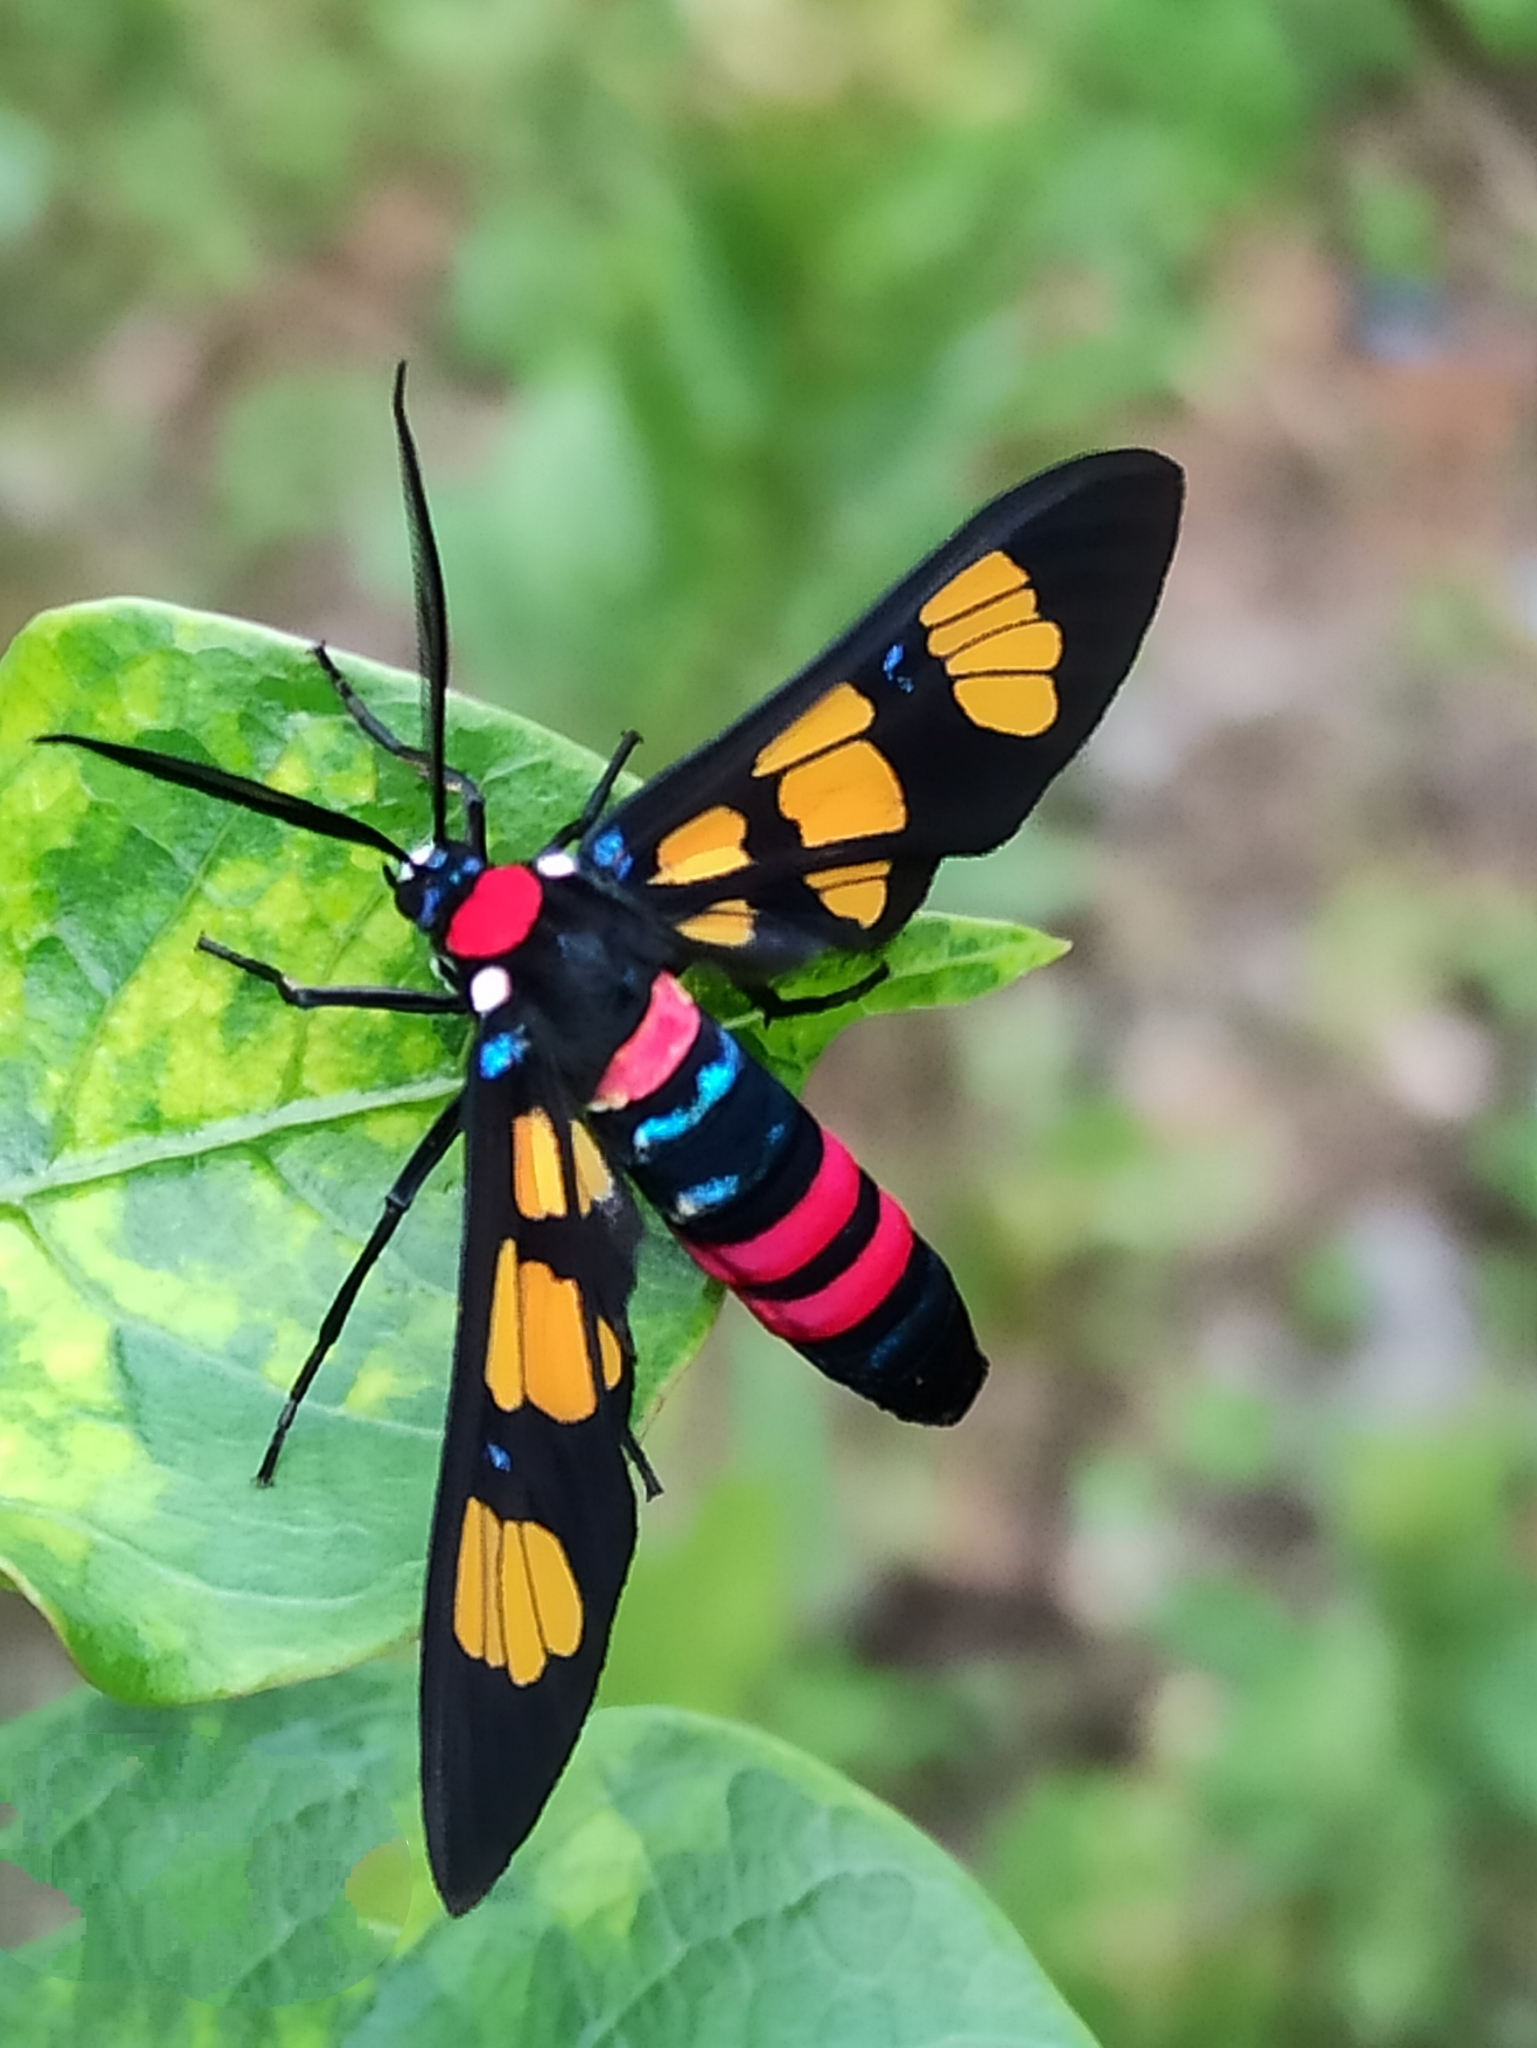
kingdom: Animalia
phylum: Arthropoda
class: Insecta
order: Lepidoptera
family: Erebidae
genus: Euchromia
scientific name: Euchromia polymena
